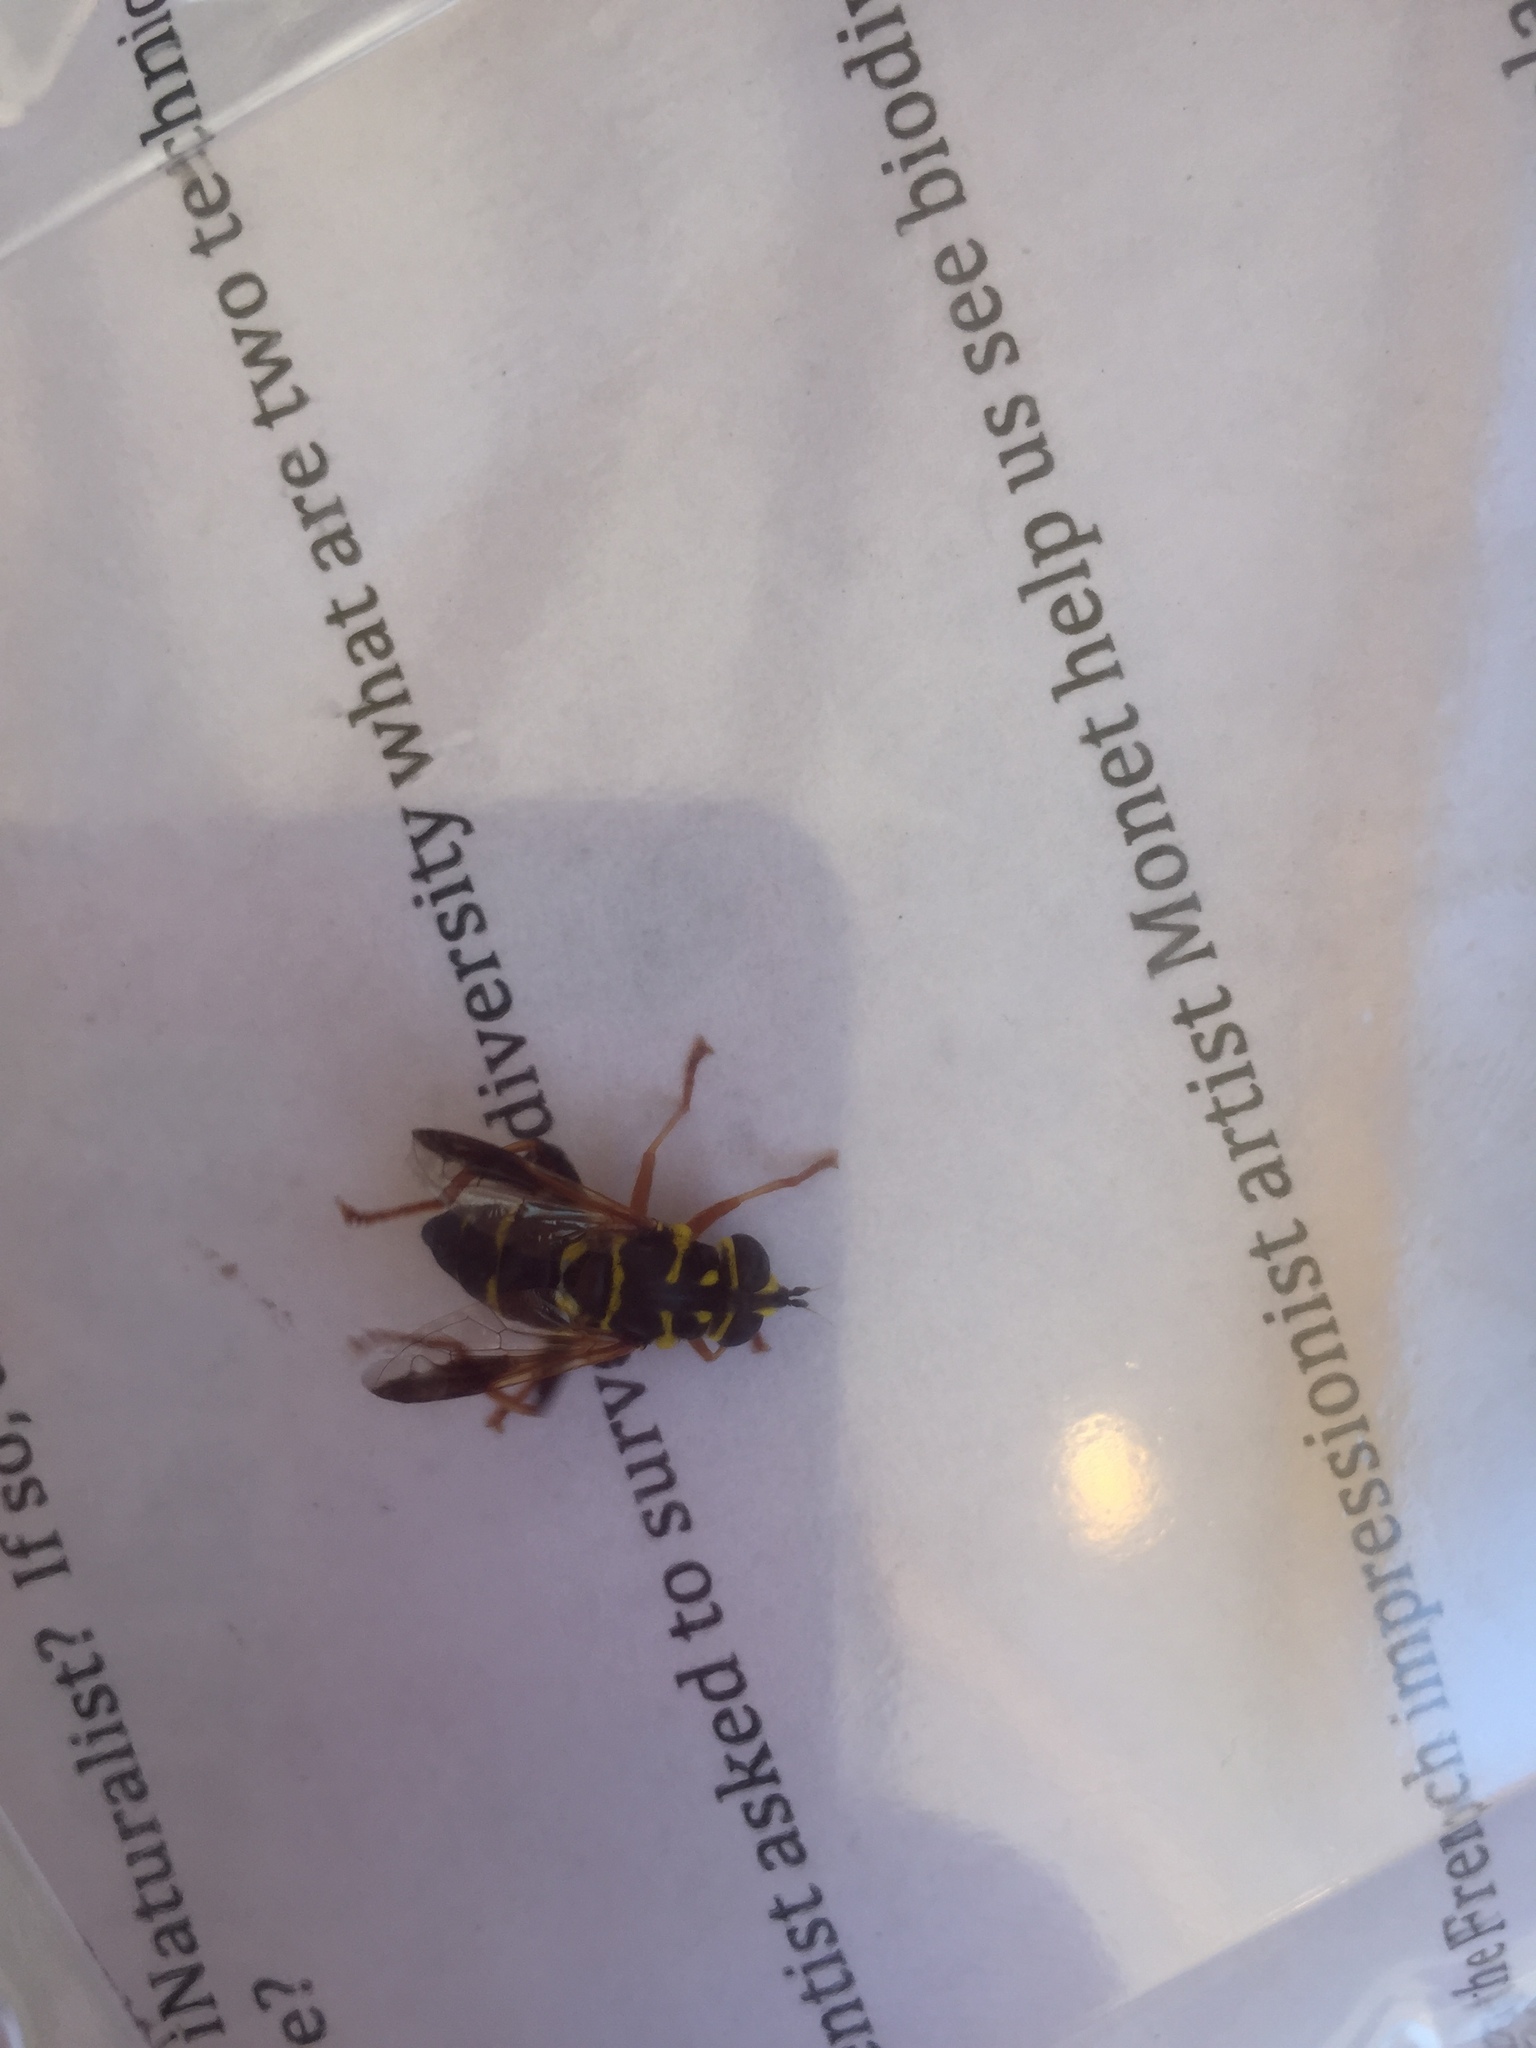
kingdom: Animalia
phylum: Arthropoda
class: Insecta
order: Diptera
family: Syrphidae
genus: Meromacrus
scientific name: Meromacrus acutus
